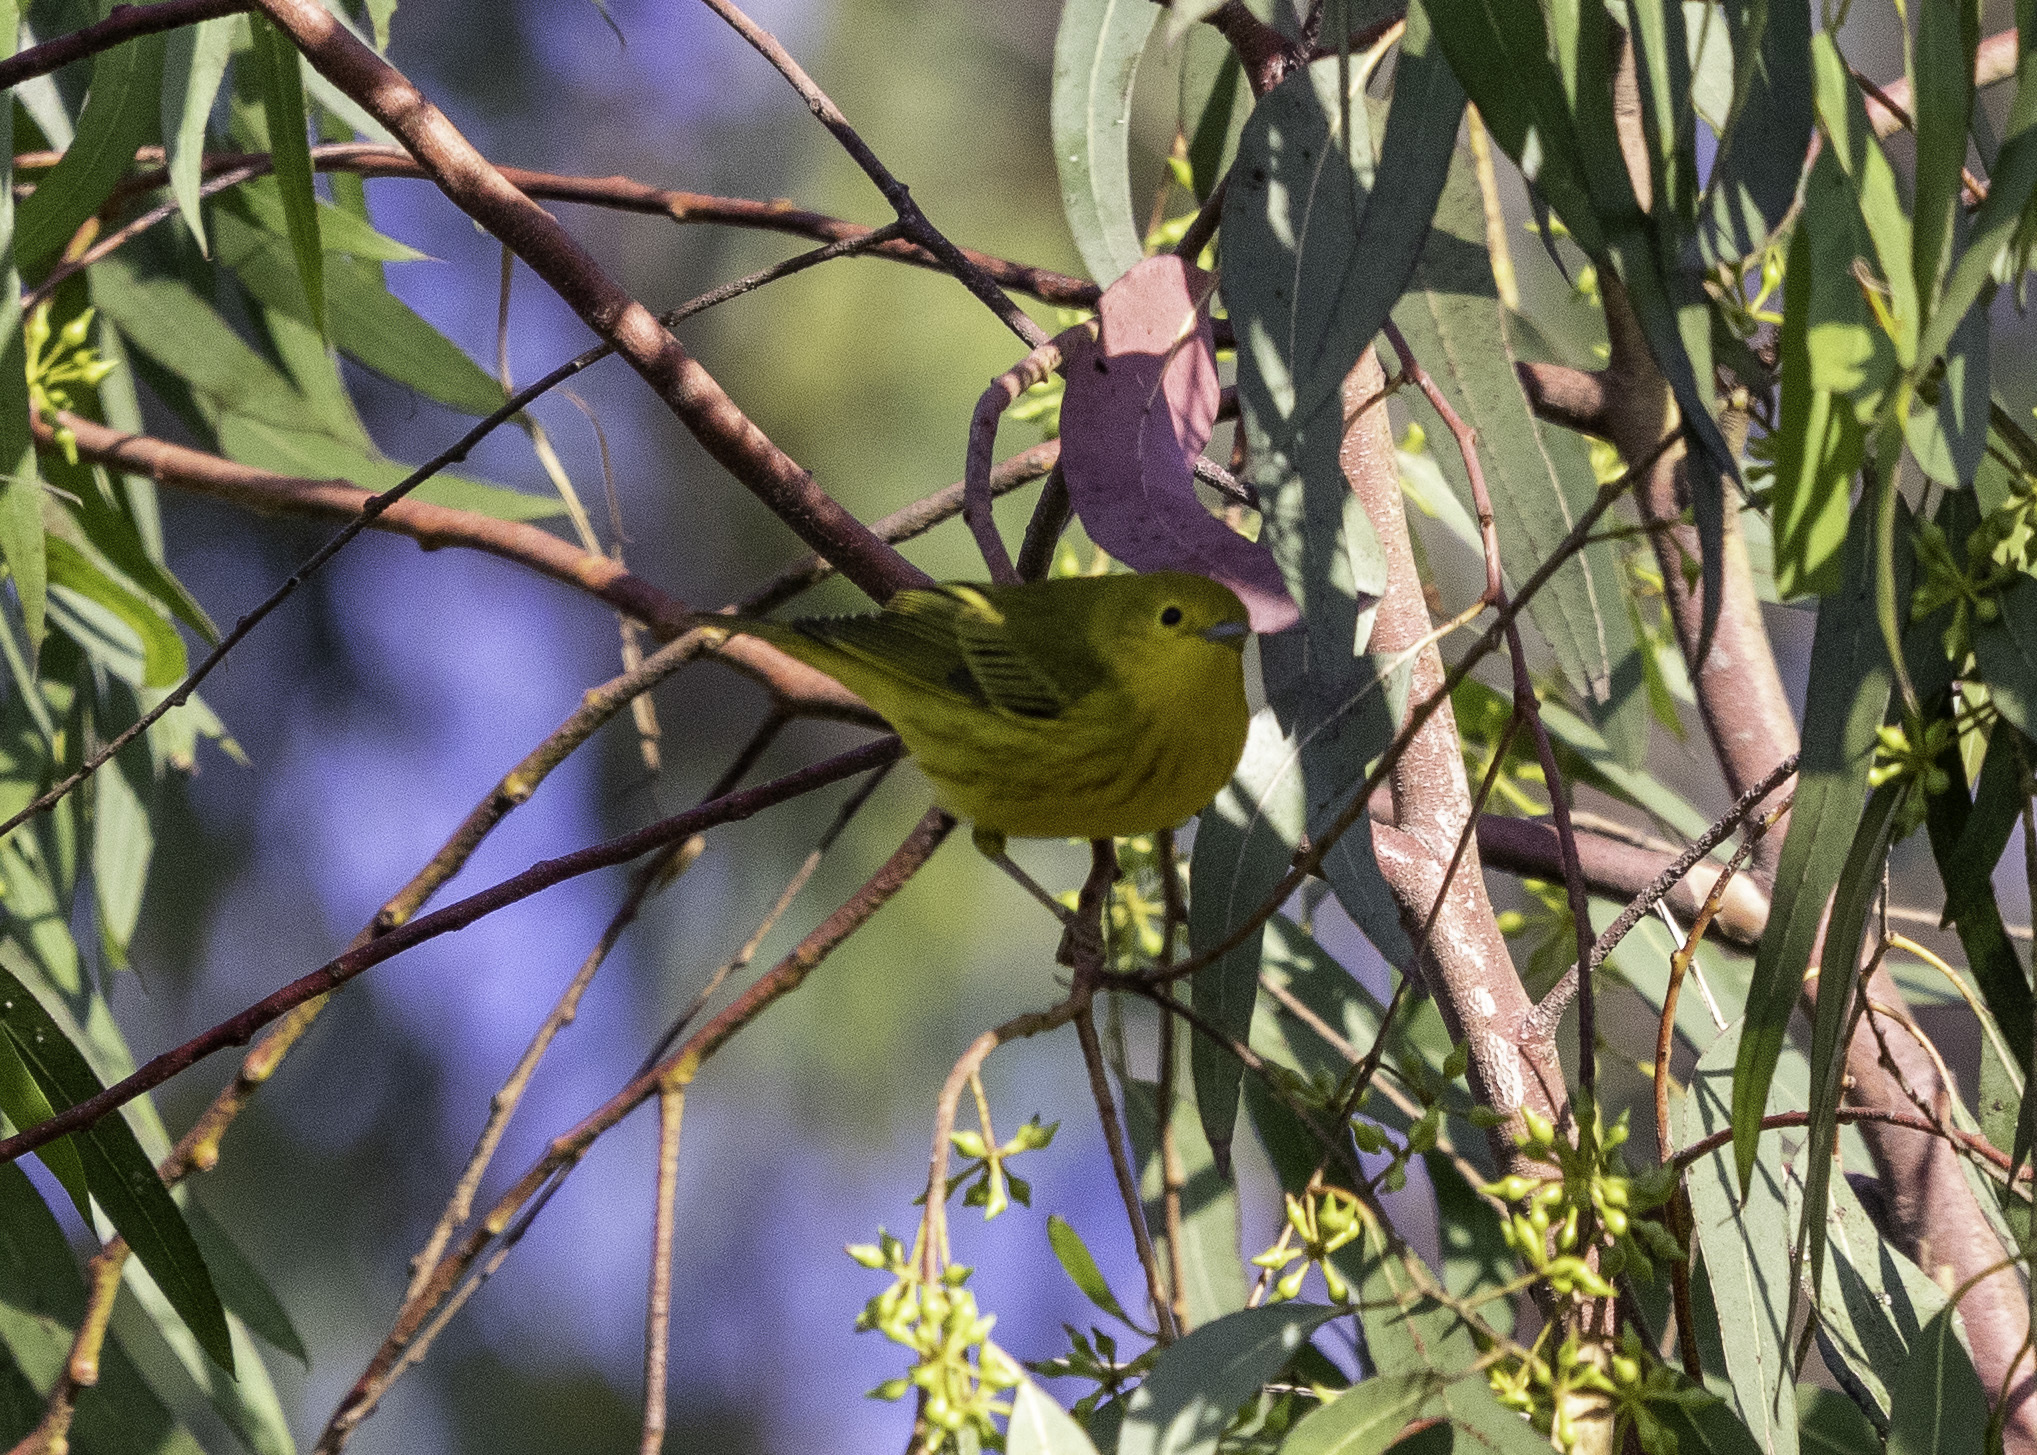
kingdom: Animalia
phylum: Chordata
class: Aves
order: Passeriformes
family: Parulidae
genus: Setophaga
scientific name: Setophaga petechia
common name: Yellow warbler
